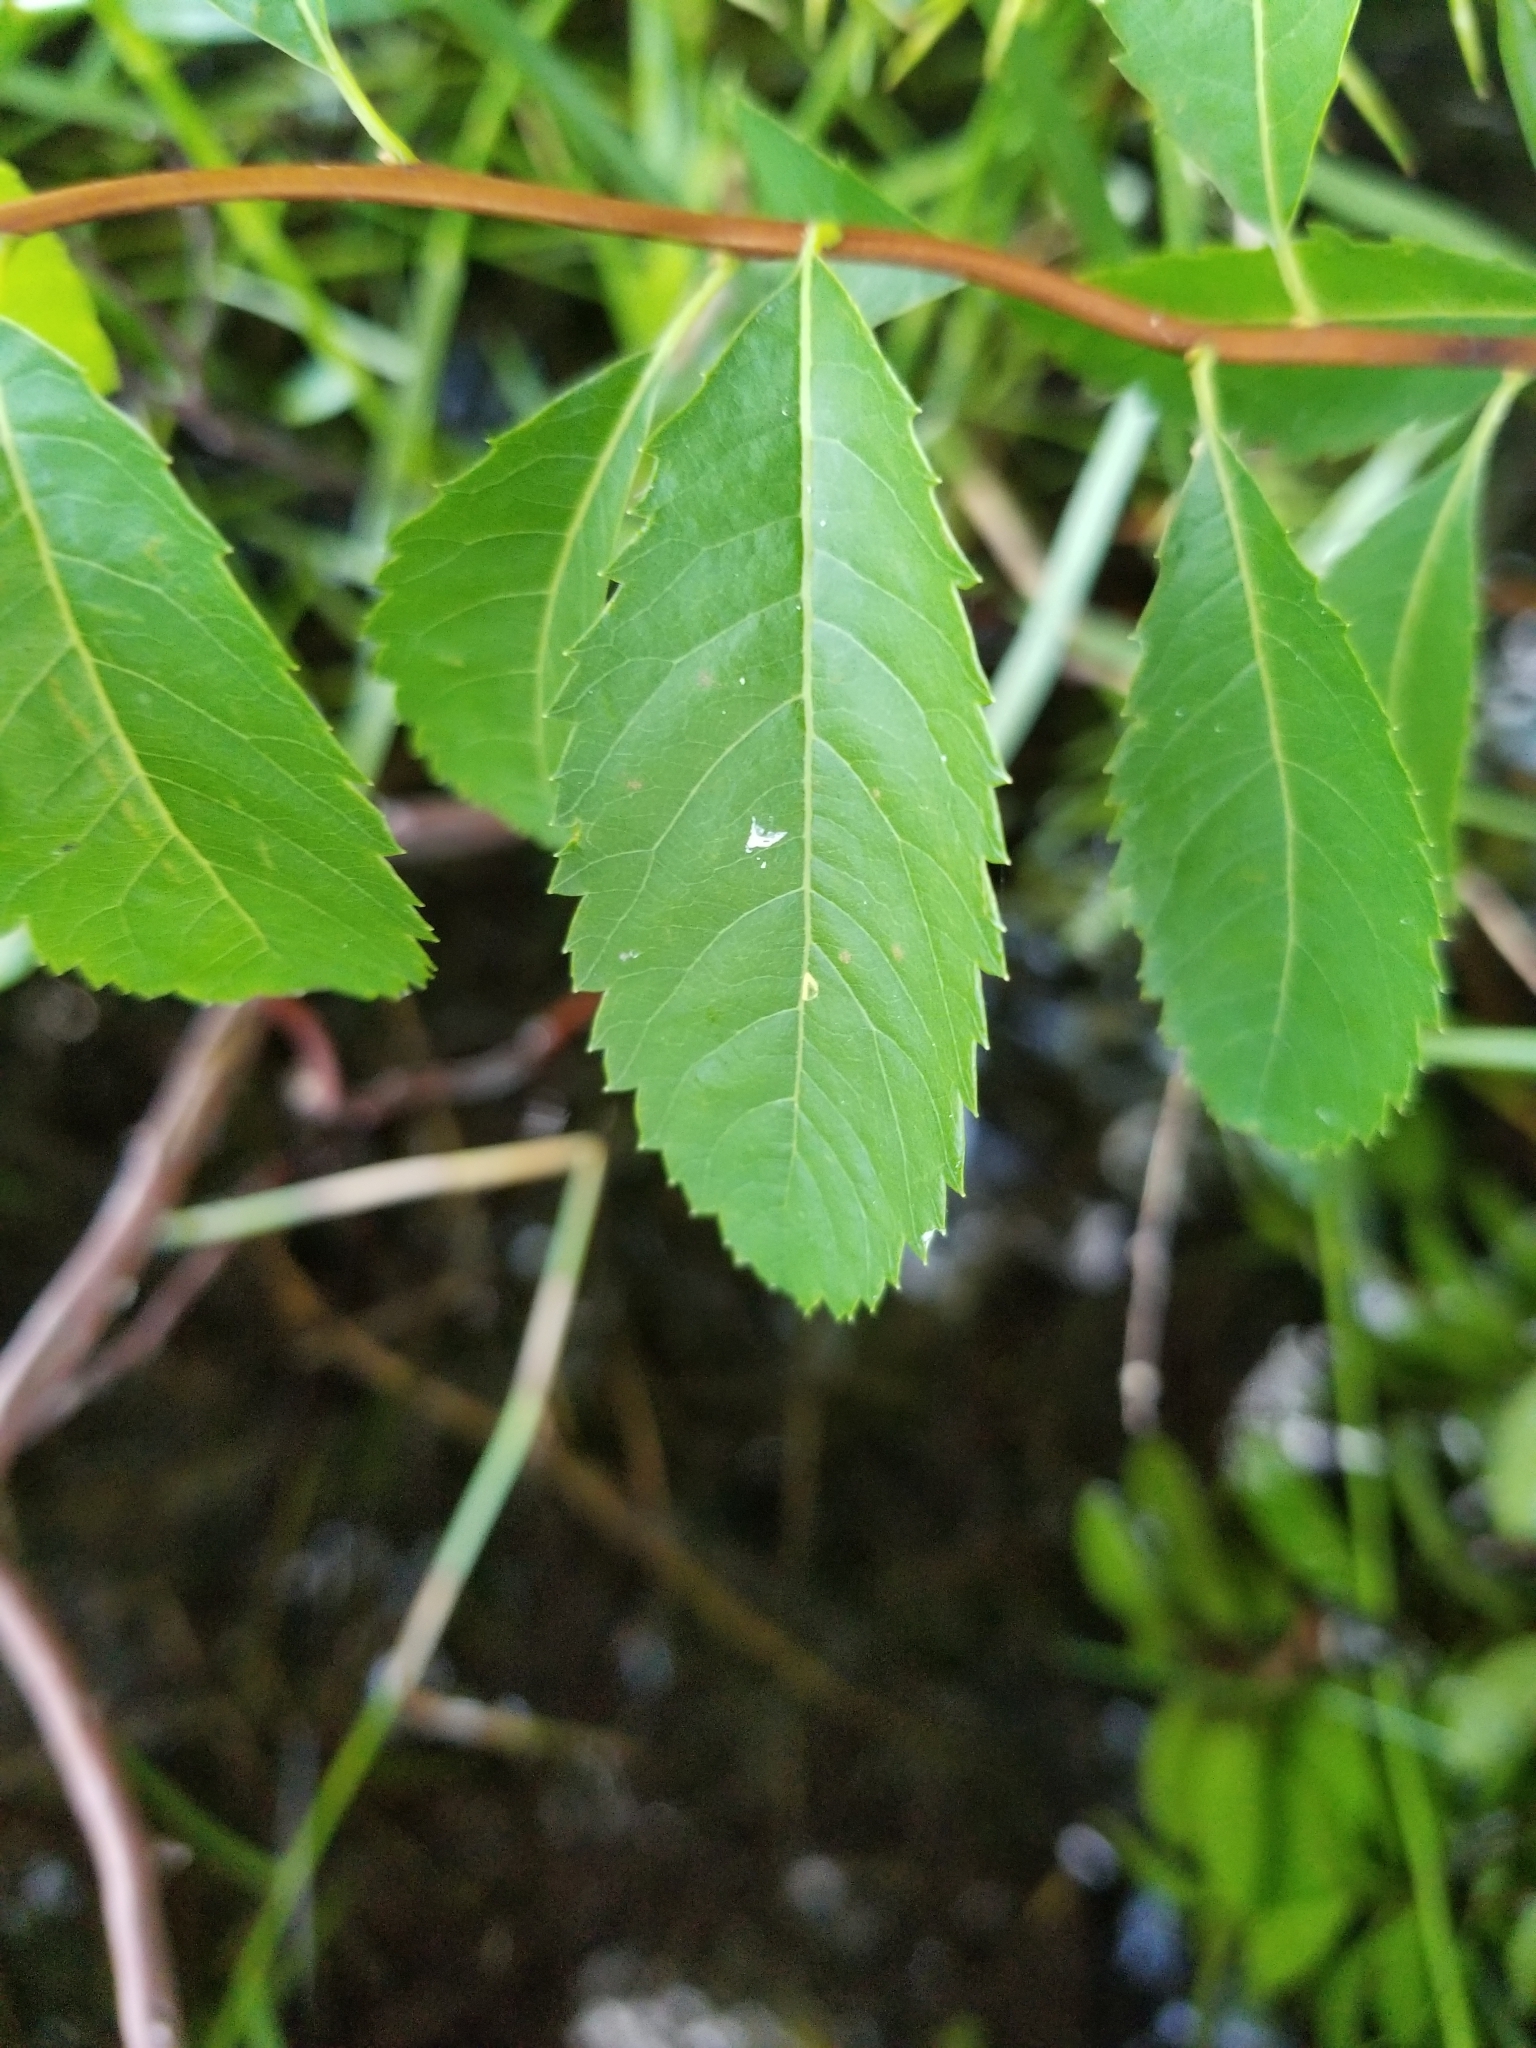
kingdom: Plantae
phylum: Tracheophyta
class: Magnoliopsida
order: Rosales
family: Rosaceae
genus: Spiraea
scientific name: Spiraea alba
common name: Pale bridewort
